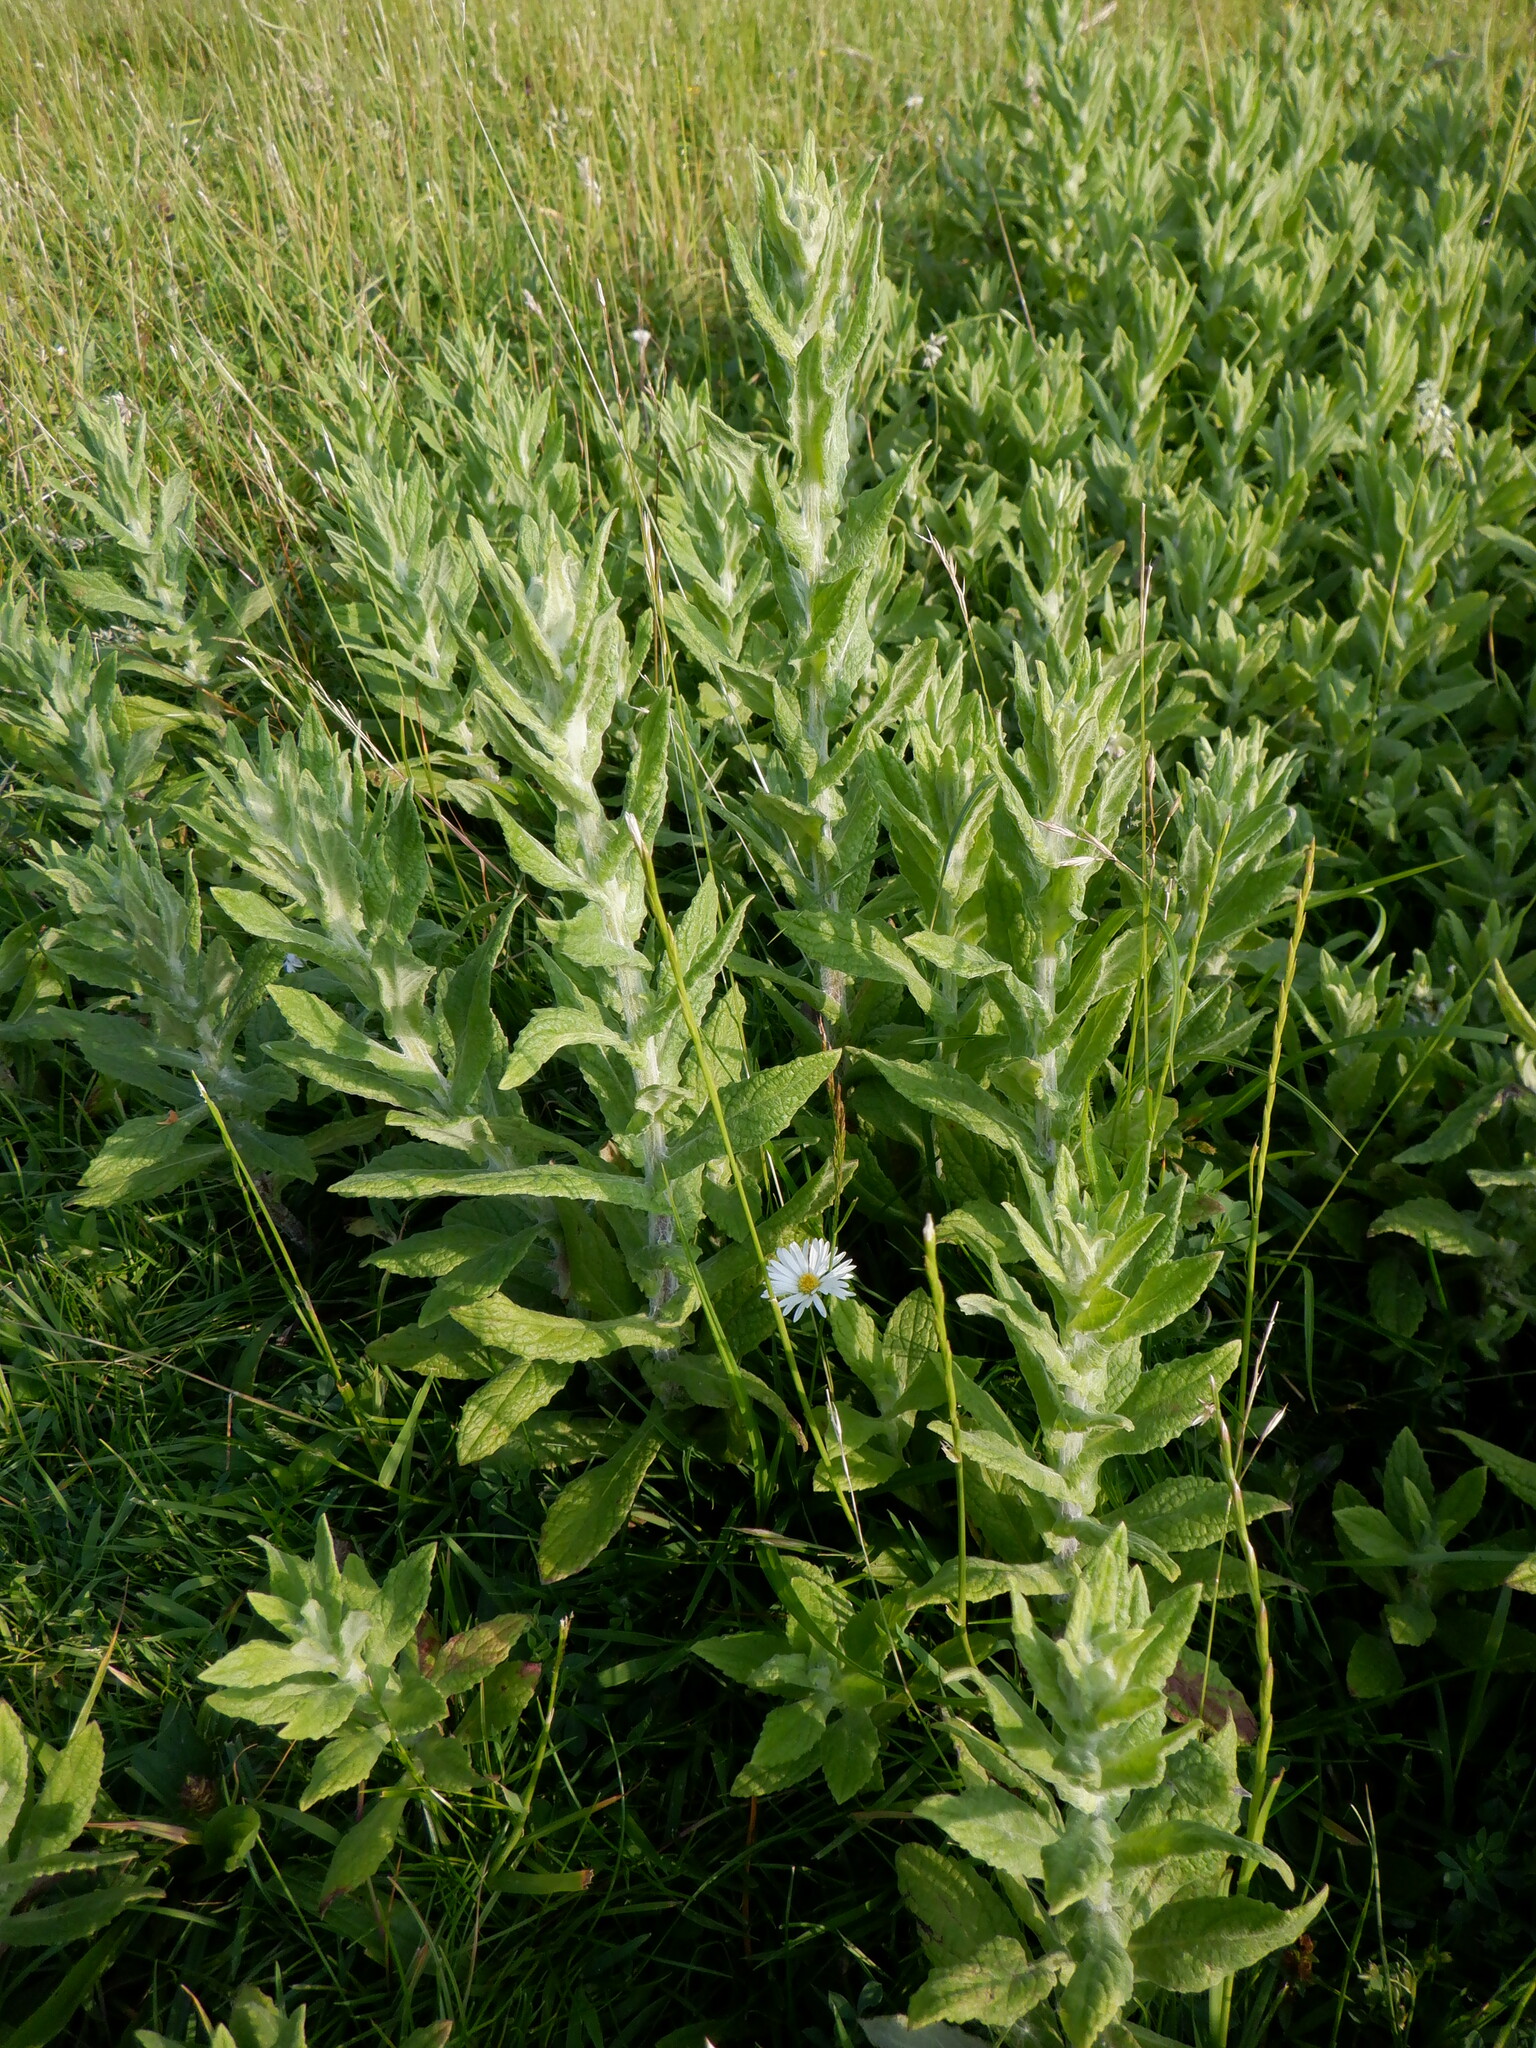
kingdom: Plantae
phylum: Tracheophyta
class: Magnoliopsida
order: Asterales
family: Asteraceae
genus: Pulicaria
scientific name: Pulicaria dysenterica
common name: Common fleabane
